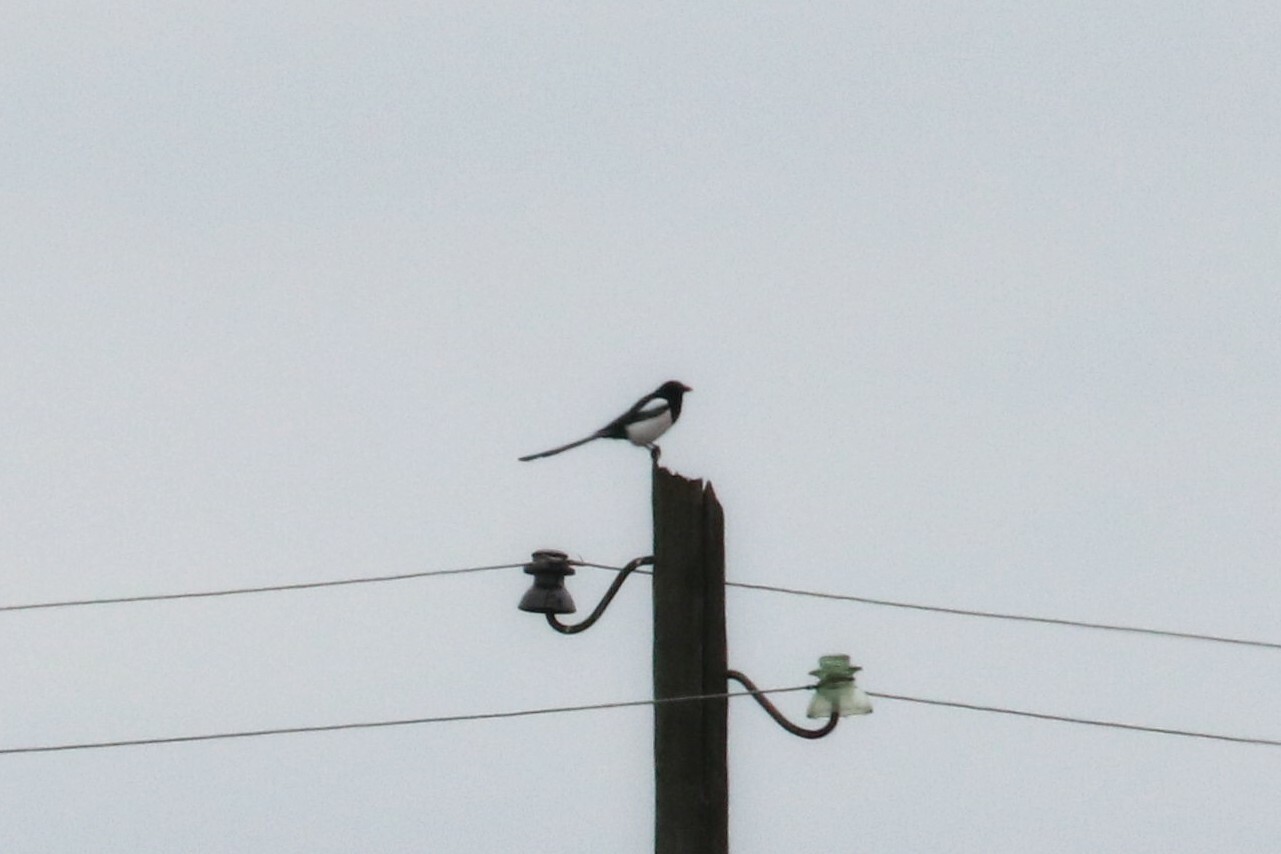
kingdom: Animalia
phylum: Chordata
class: Aves
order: Passeriformes
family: Corvidae
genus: Pica
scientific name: Pica pica
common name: Eurasian magpie
